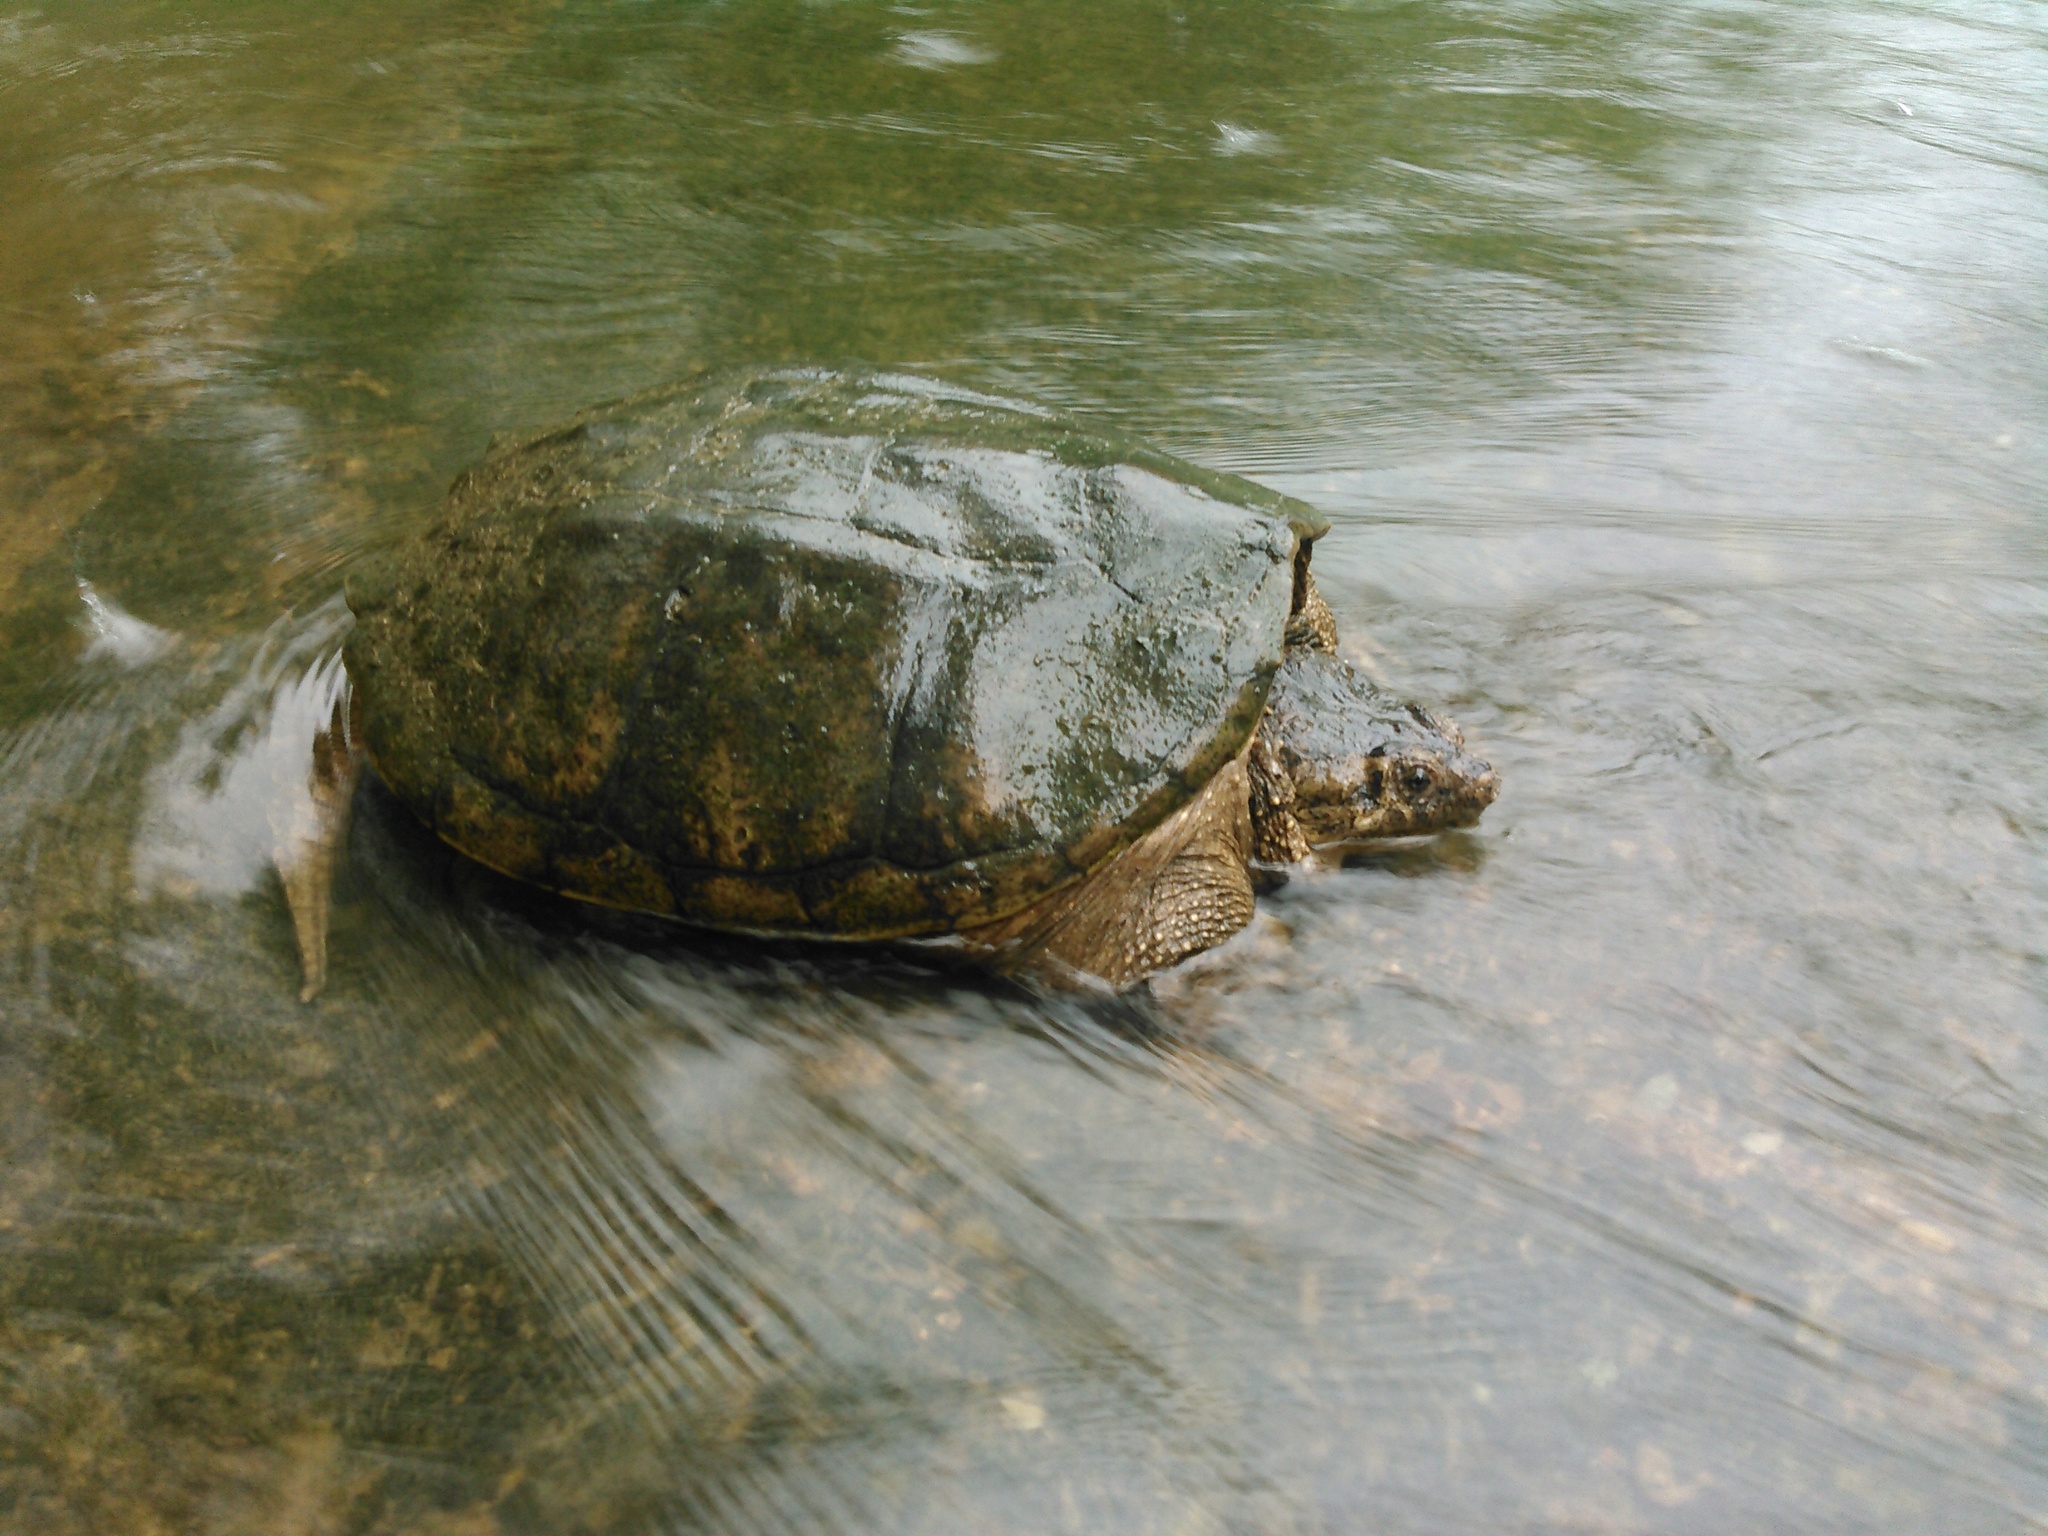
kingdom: Animalia
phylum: Chordata
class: Testudines
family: Chelydridae
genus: Chelydra
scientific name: Chelydra serpentina
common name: Common snapping turtle
